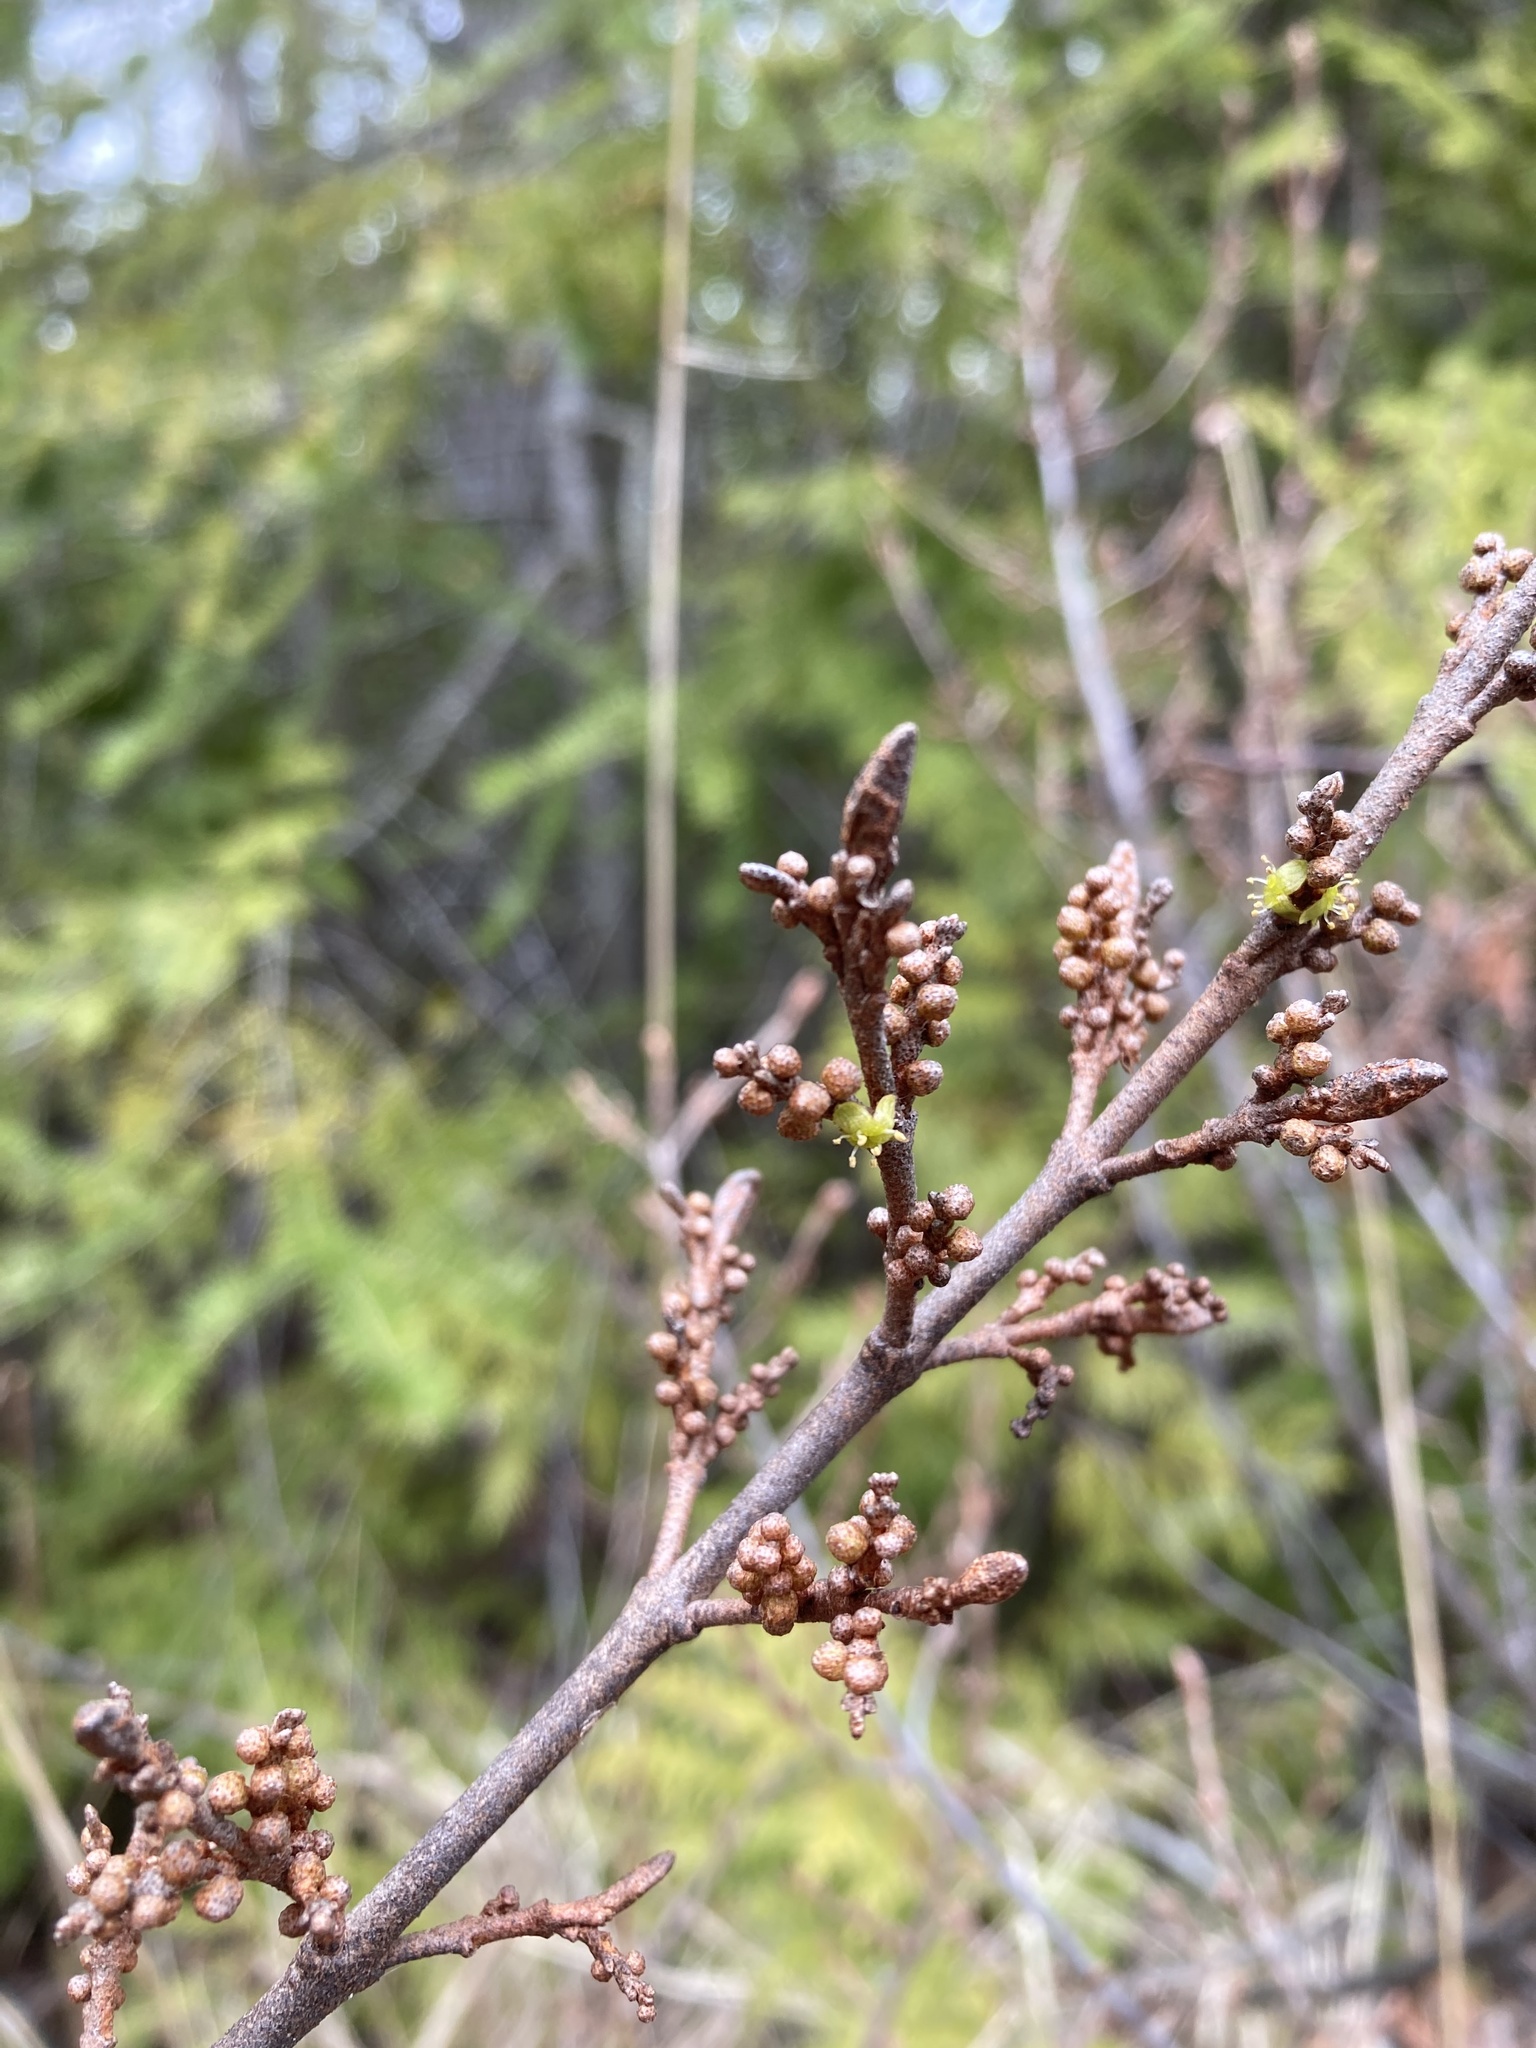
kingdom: Plantae
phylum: Tracheophyta
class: Magnoliopsida
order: Rosales
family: Elaeagnaceae
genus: Shepherdia
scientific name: Shepherdia canadensis
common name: Soapberry
